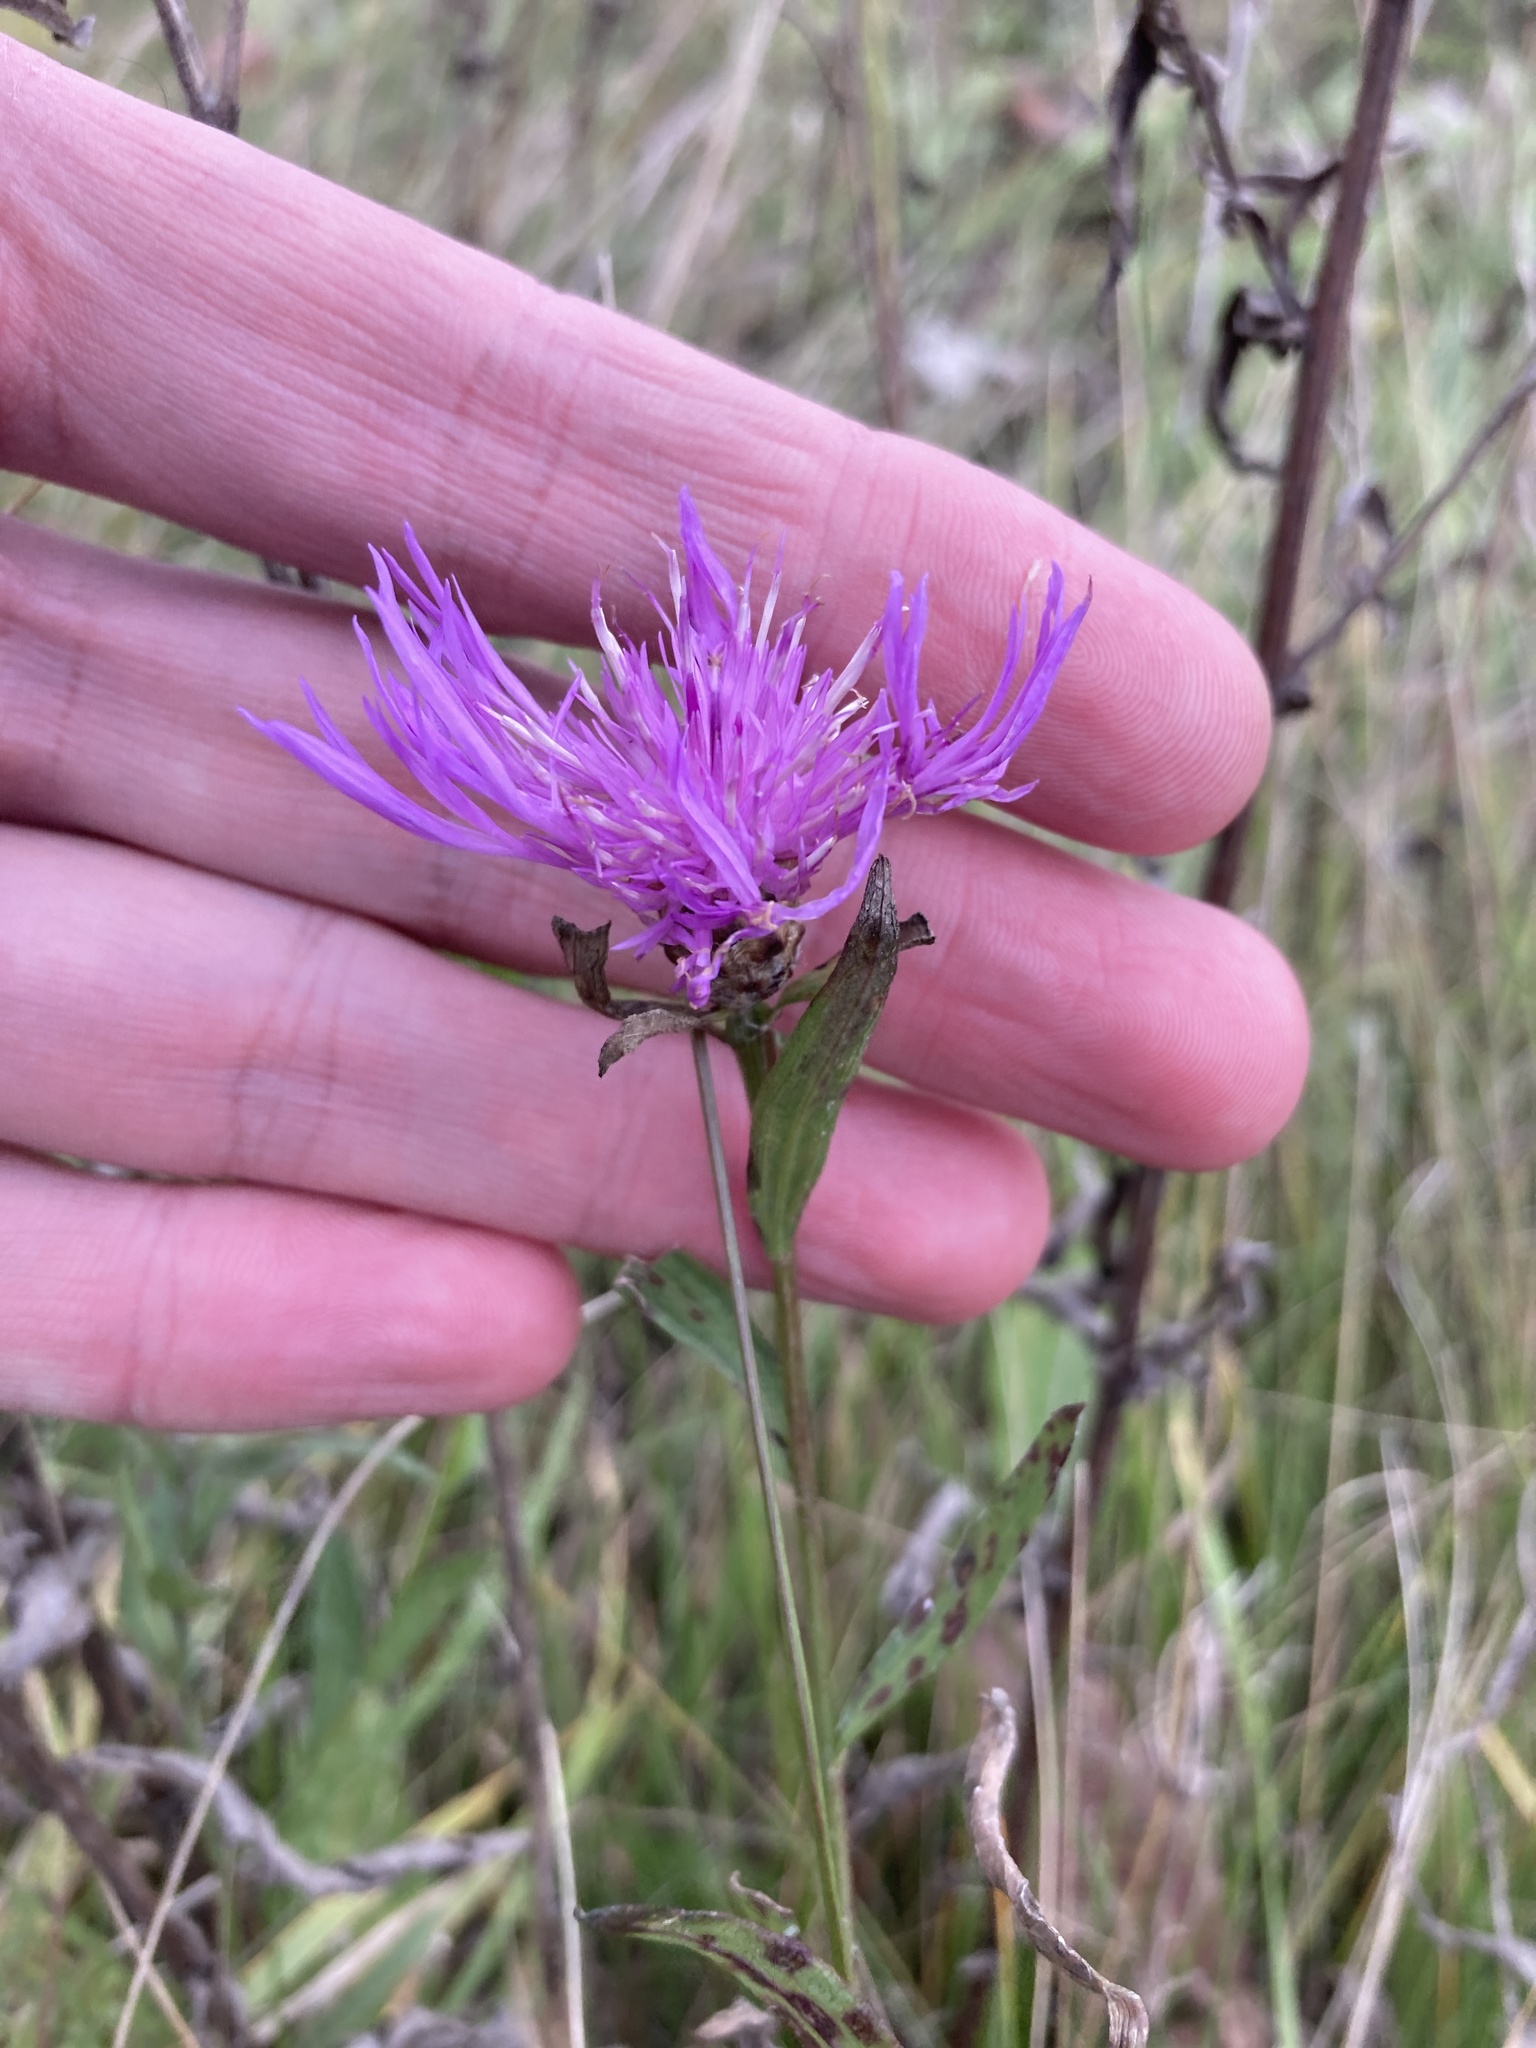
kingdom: Plantae
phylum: Tracheophyta
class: Magnoliopsida
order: Asterales
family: Asteraceae
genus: Centaurea
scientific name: Centaurea jacea
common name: Brown knapweed
